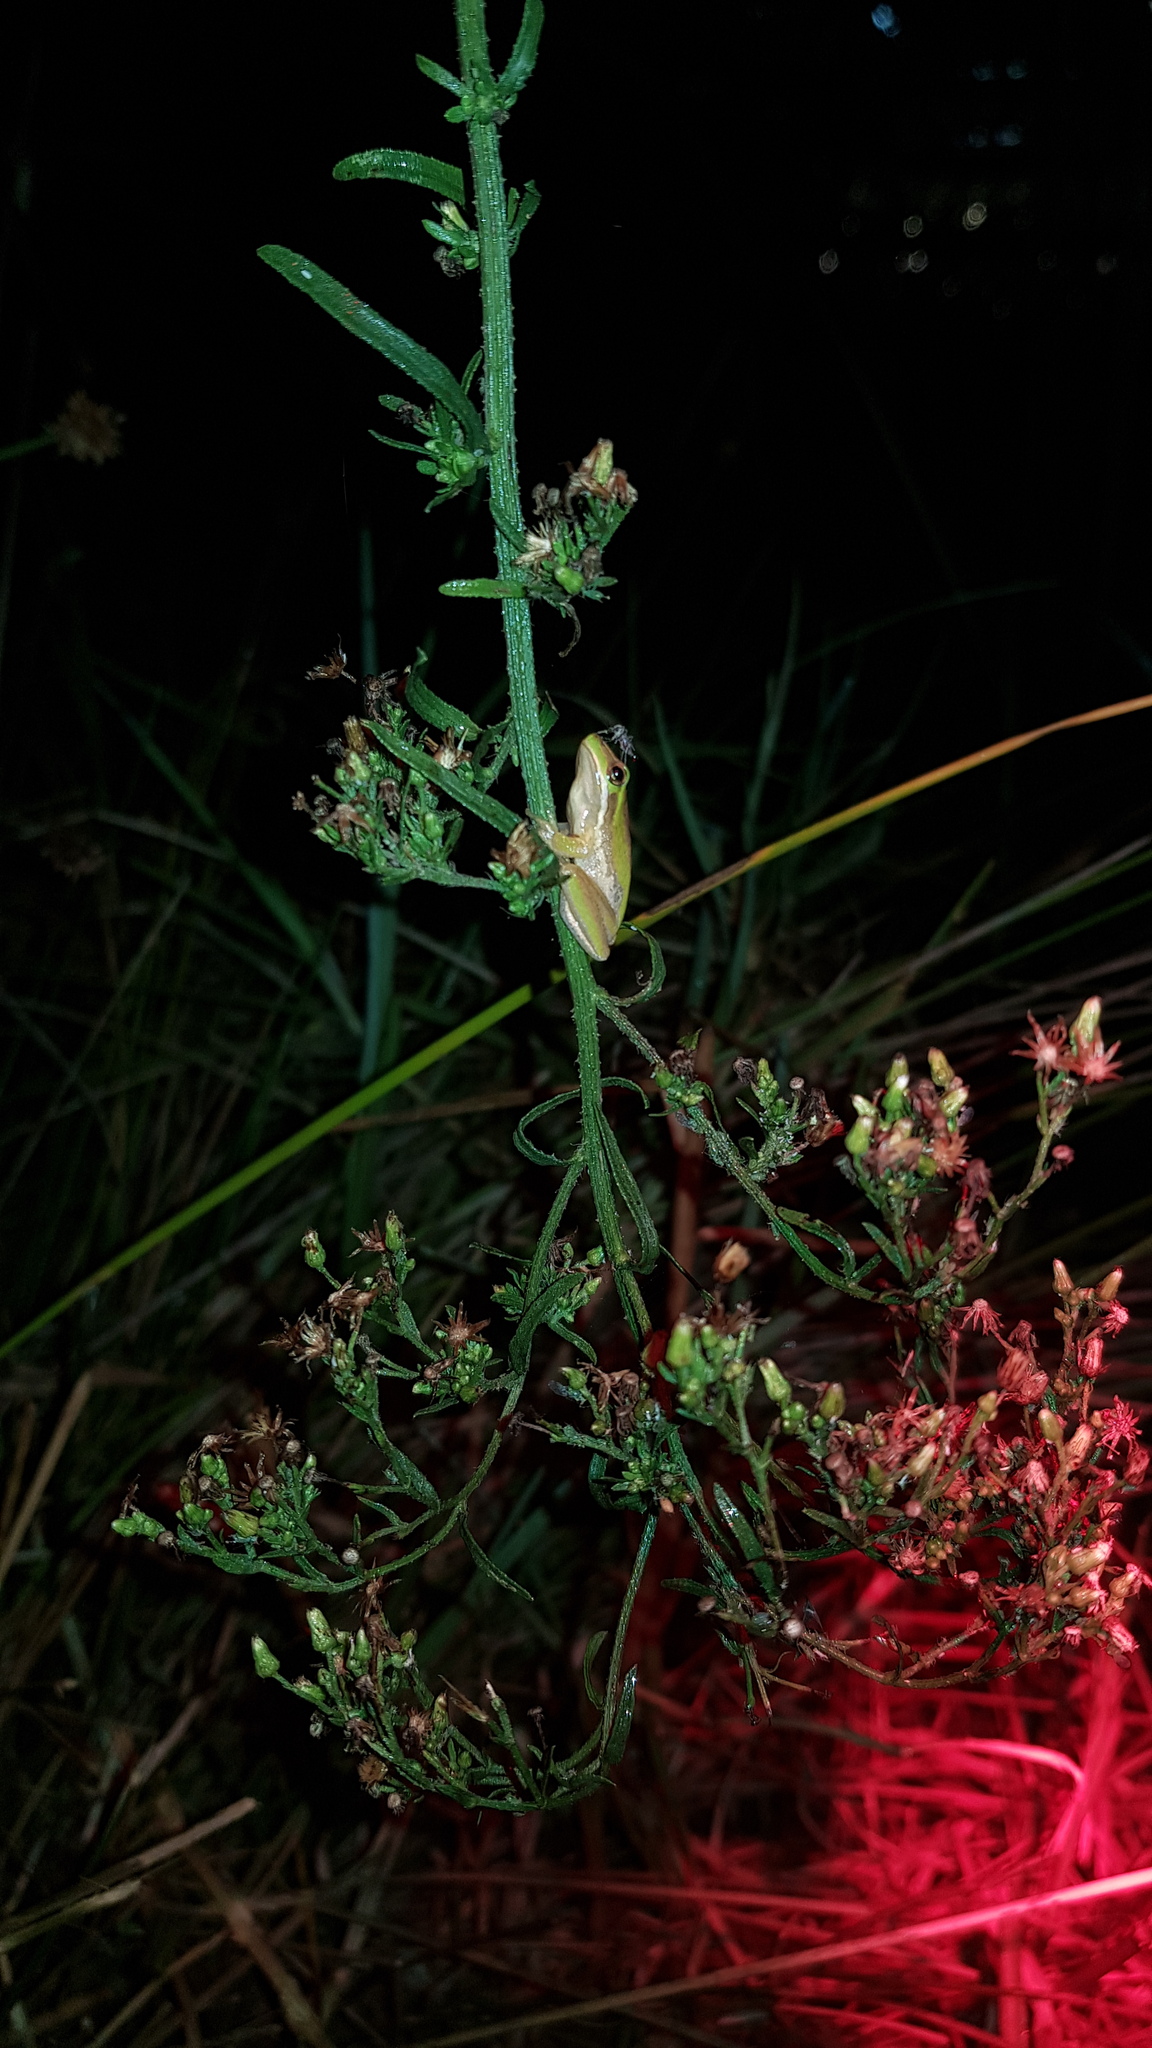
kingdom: Animalia
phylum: Chordata
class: Amphibia
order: Anura
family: Pelodryadidae
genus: Litoria
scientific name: Litoria fallax
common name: Eastern dwarf treefrog
